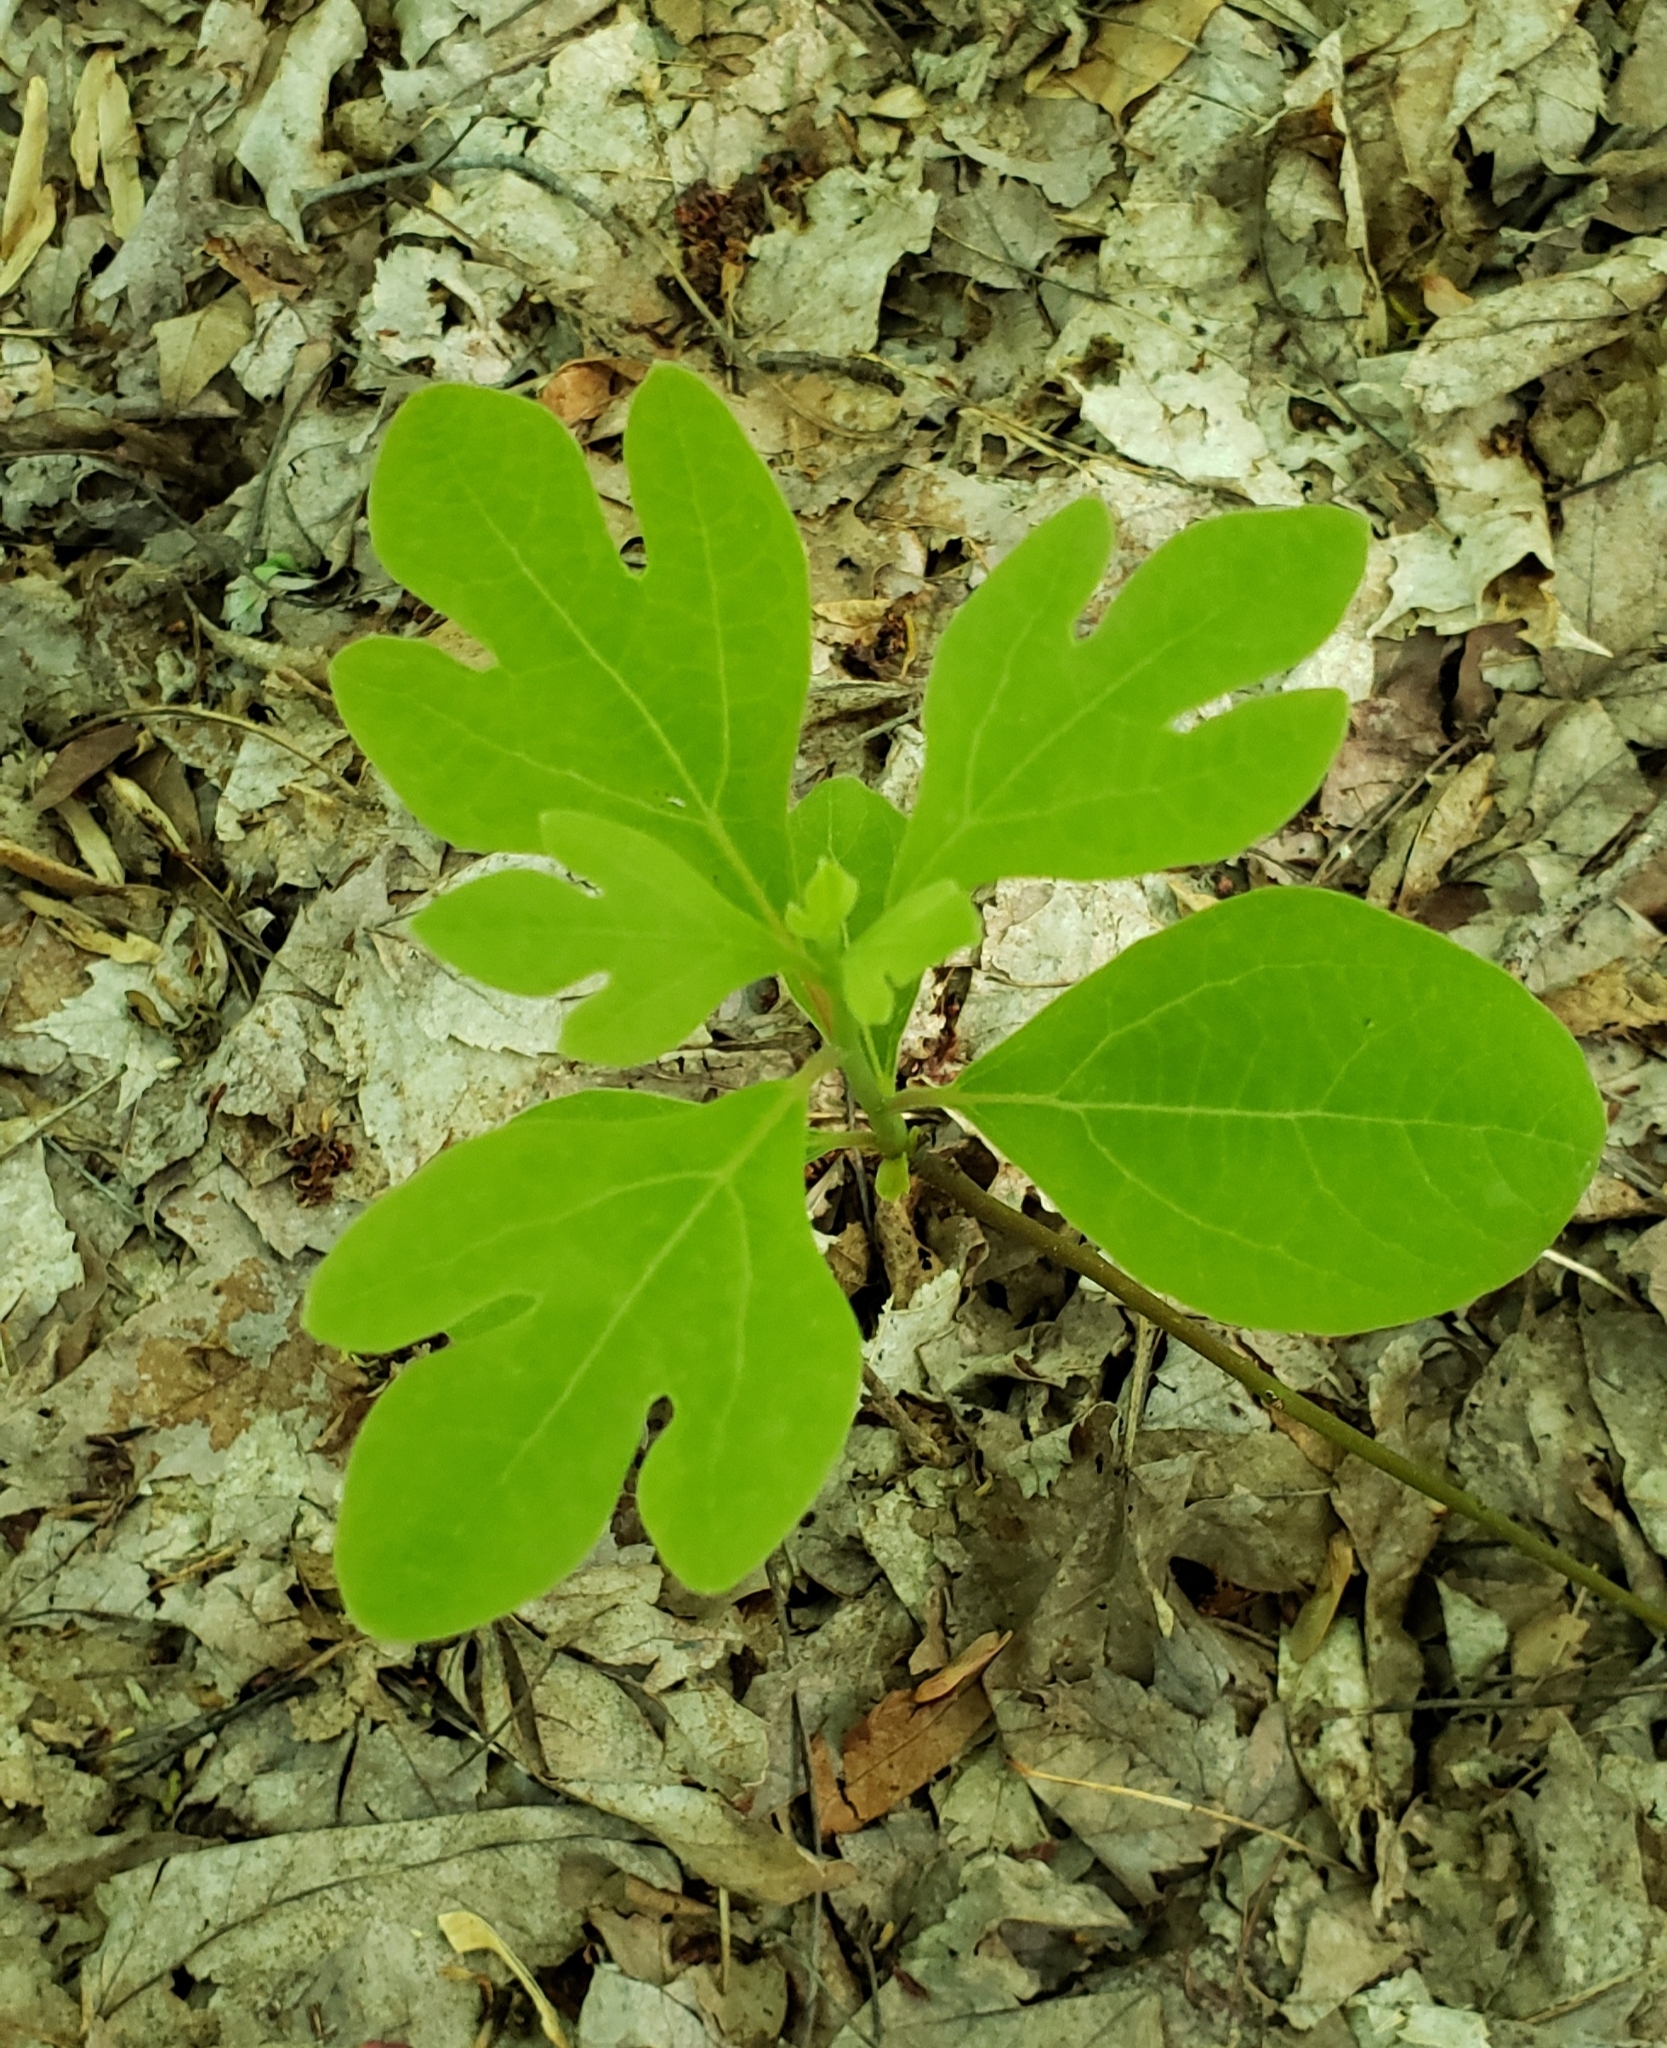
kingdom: Plantae
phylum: Tracheophyta
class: Magnoliopsida
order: Laurales
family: Lauraceae
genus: Sassafras
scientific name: Sassafras albidum
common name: Sassafras
